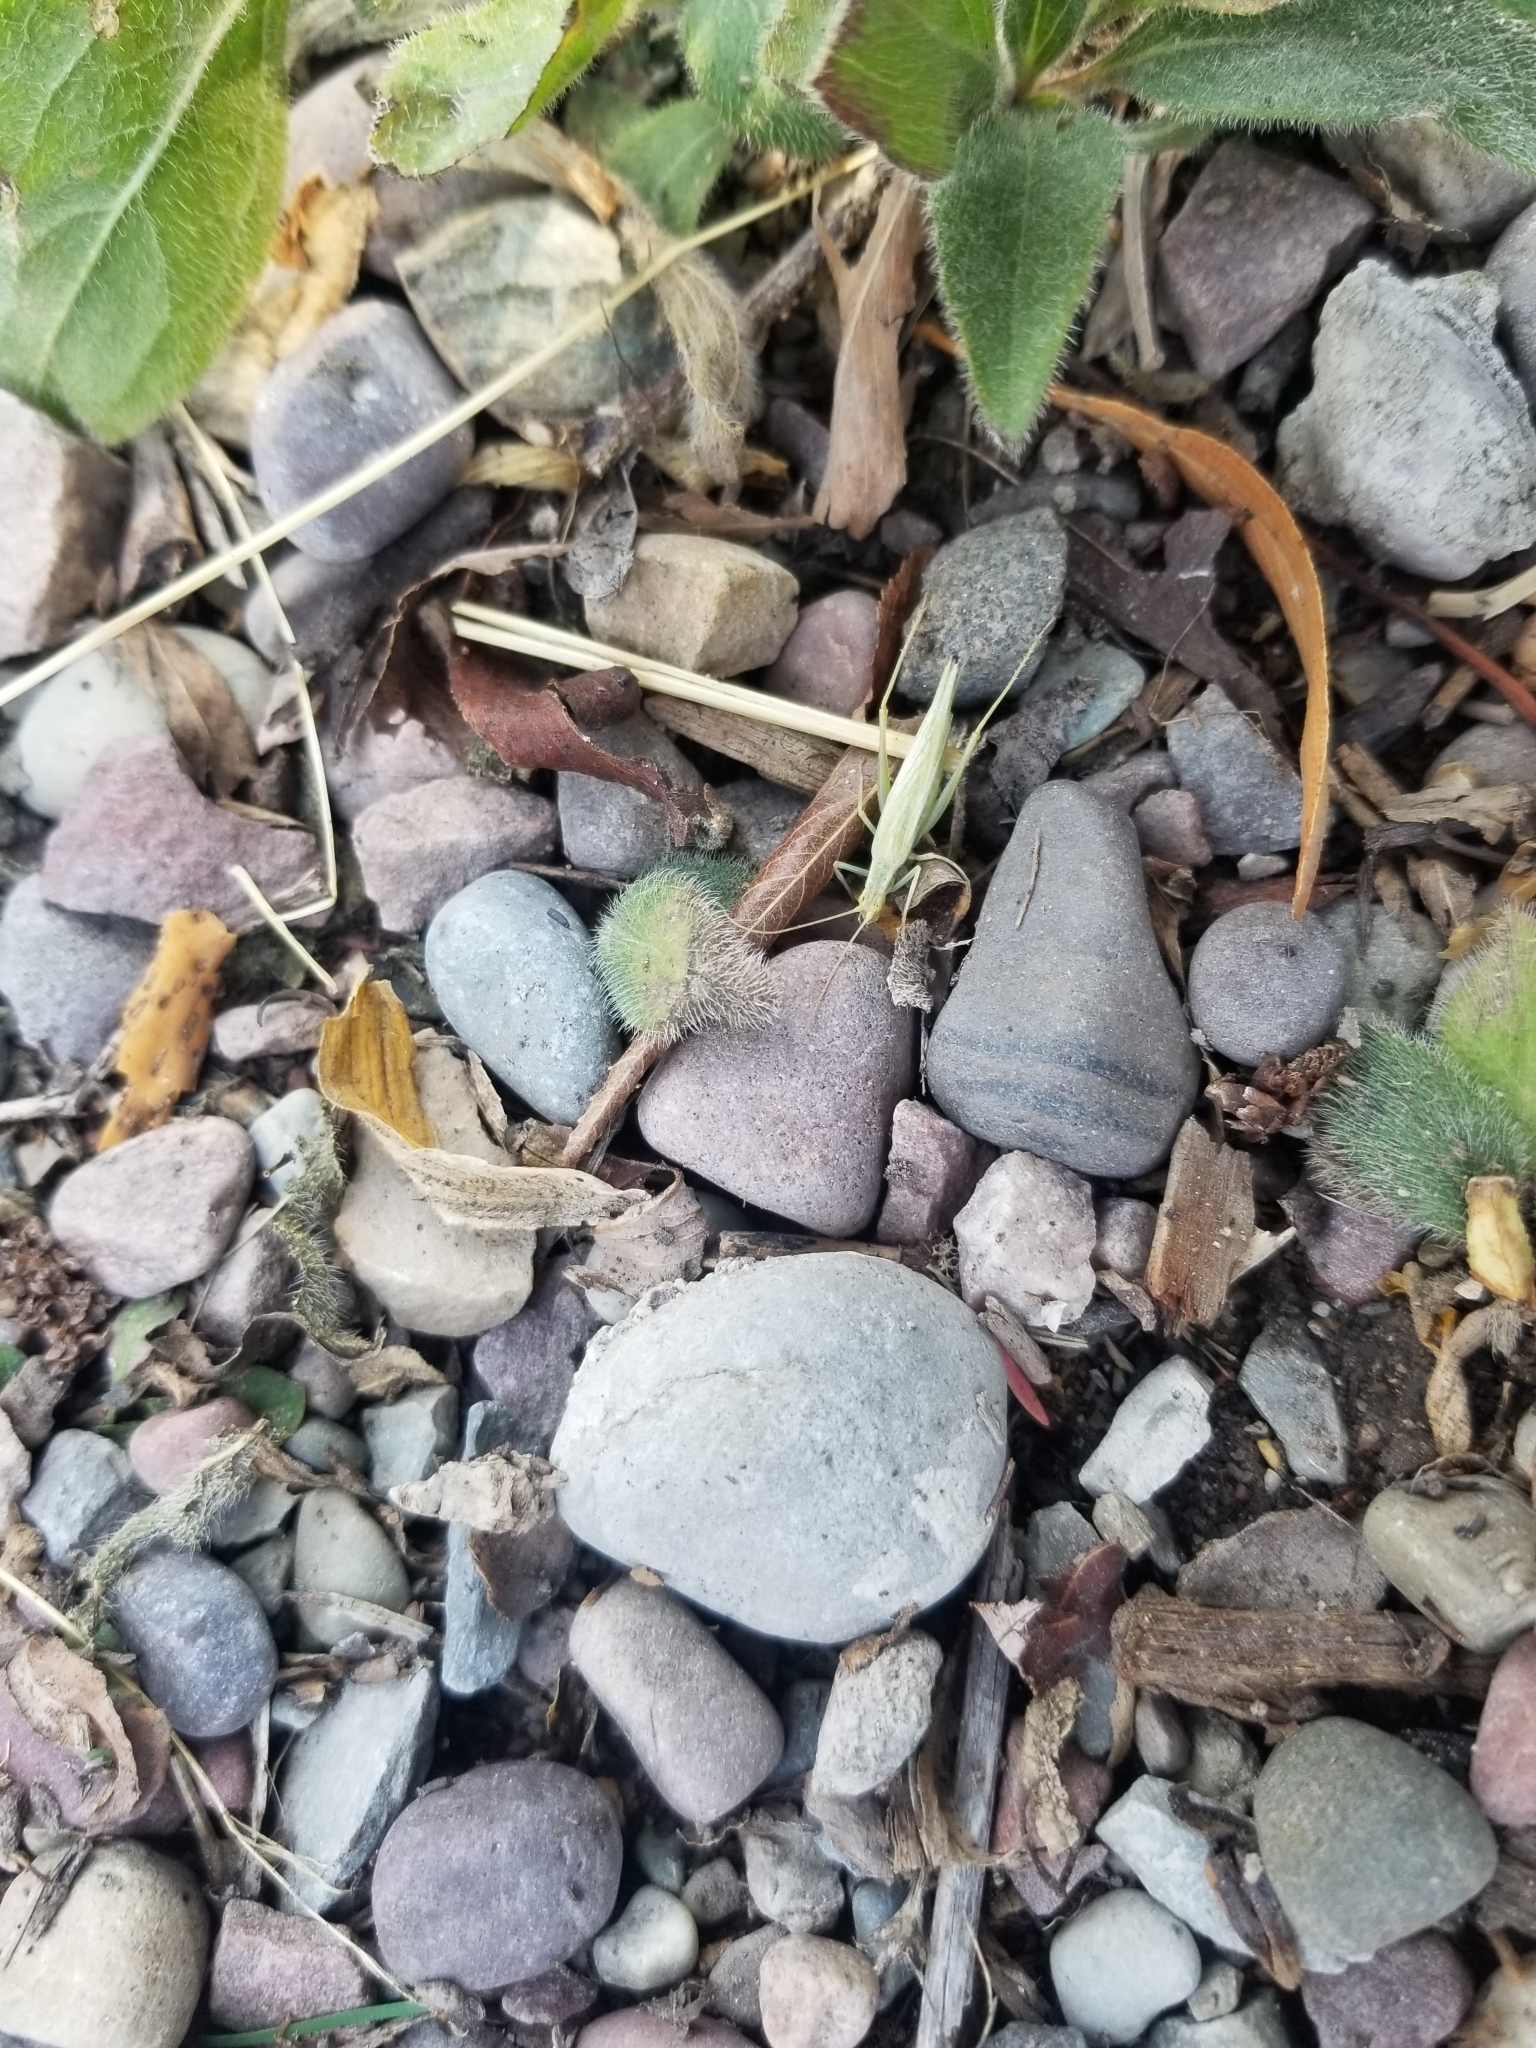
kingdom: Animalia
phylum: Arthropoda
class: Insecta
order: Orthoptera
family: Gryllidae
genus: Oecanthus
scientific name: Oecanthus quadripunctatus
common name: Four-spotted tree cricket
